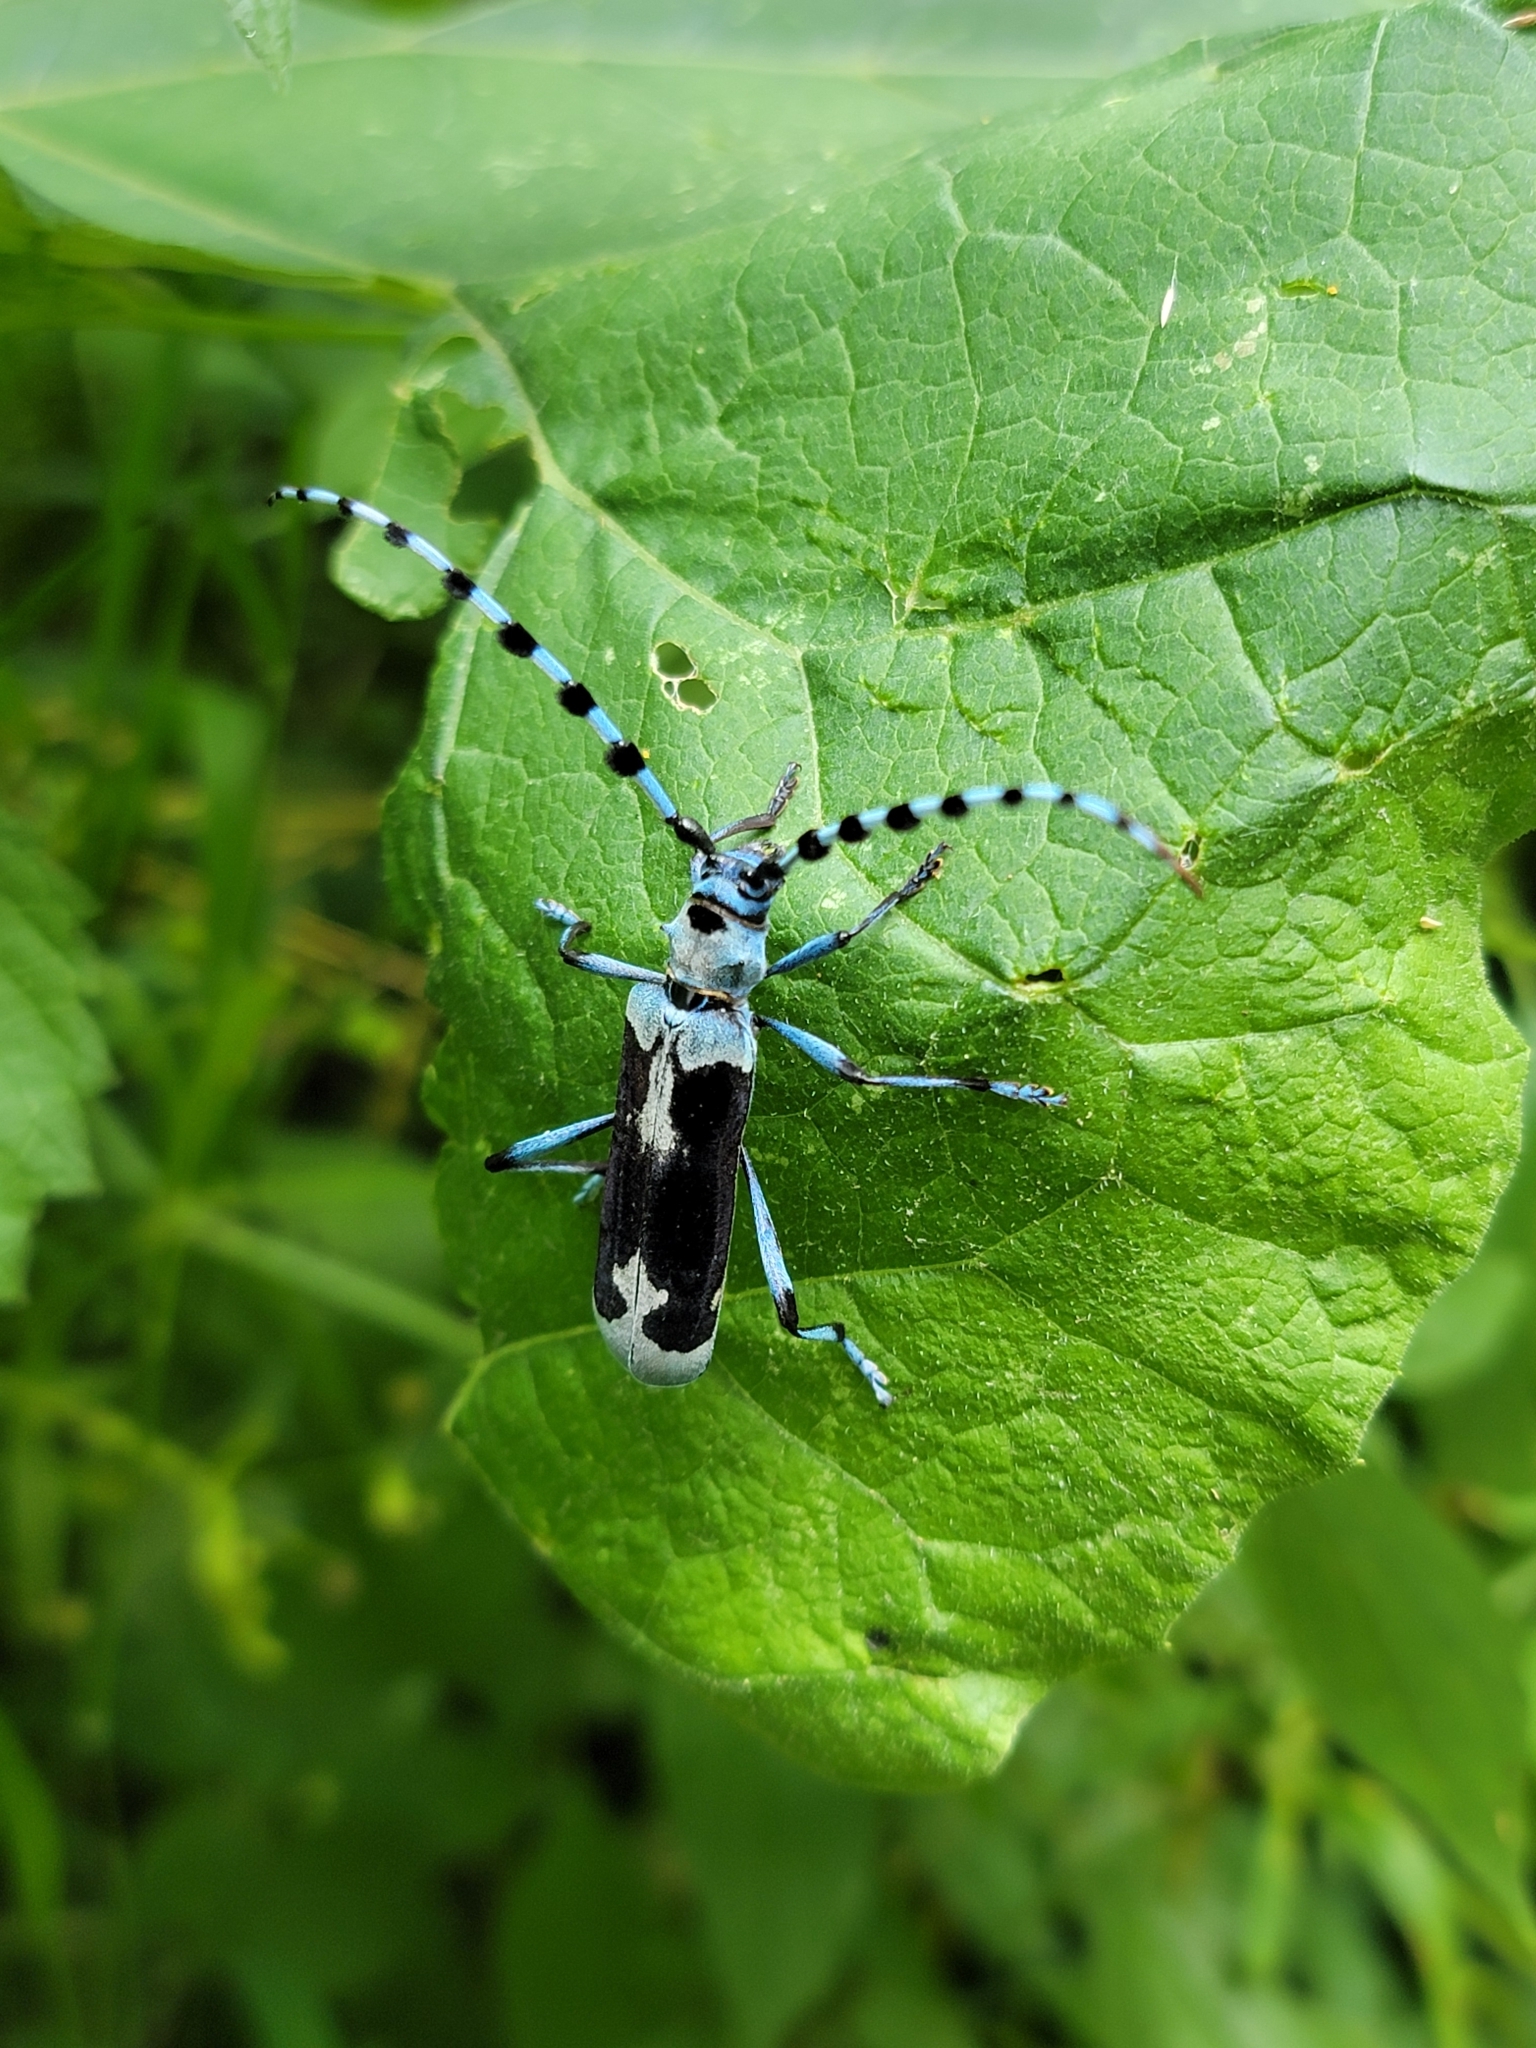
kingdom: Animalia
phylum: Arthropoda
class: Insecta
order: Coleoptera
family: Cerambycidae
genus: Rosalia
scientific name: Rosalia alpina
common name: Rosalia longicorn
